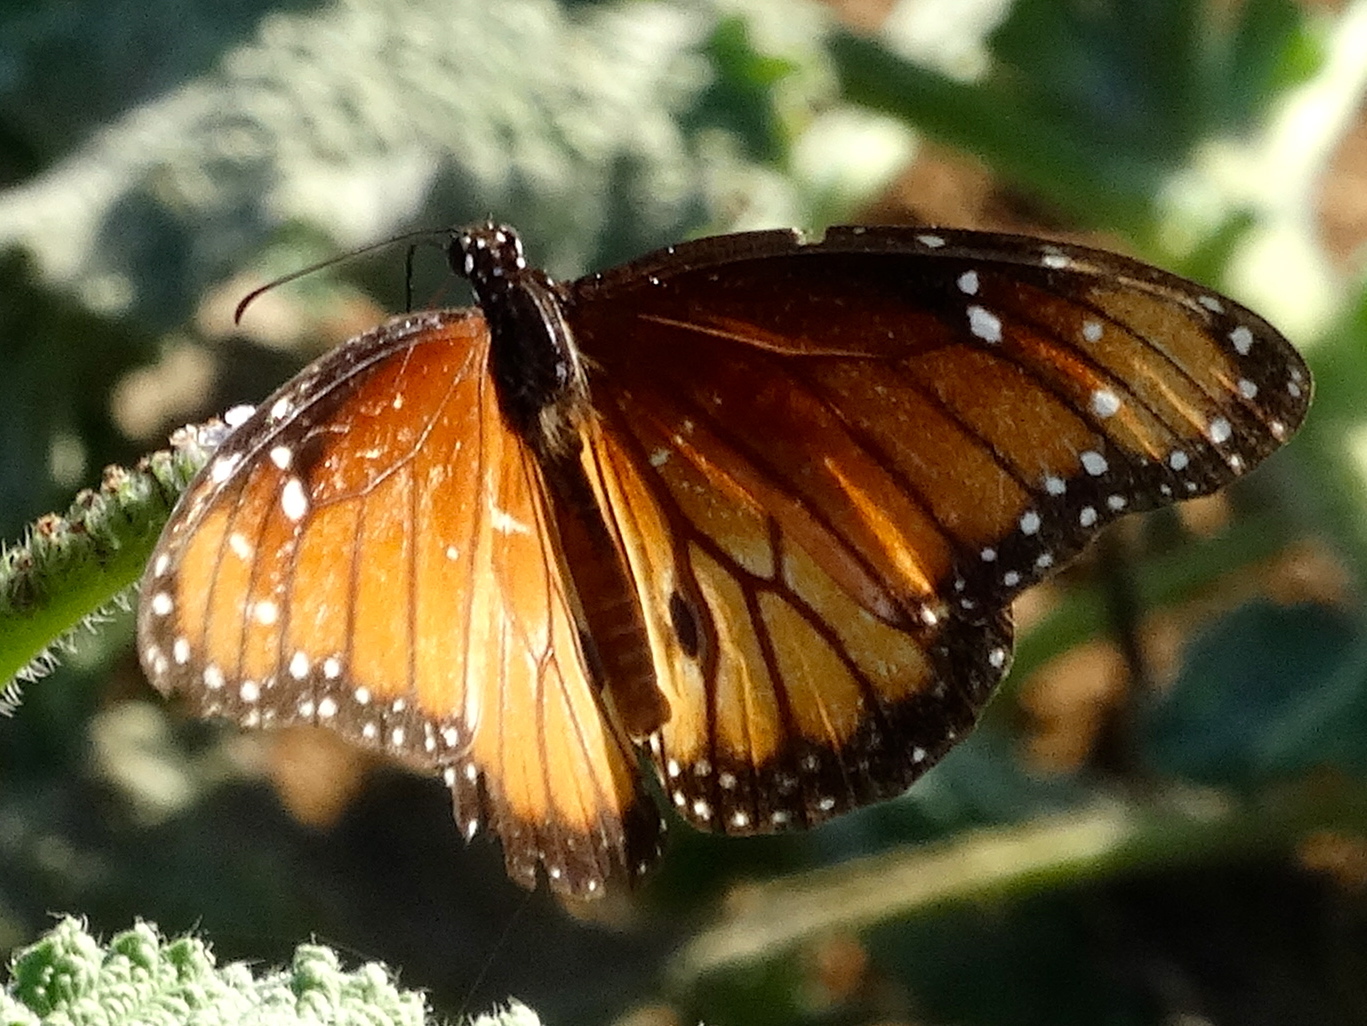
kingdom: Animalia
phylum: Arthropoda
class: Insecta
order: Lepidoptera
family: Nymphalidae
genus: Danaus
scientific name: Danaus eresimus
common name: Soldier
